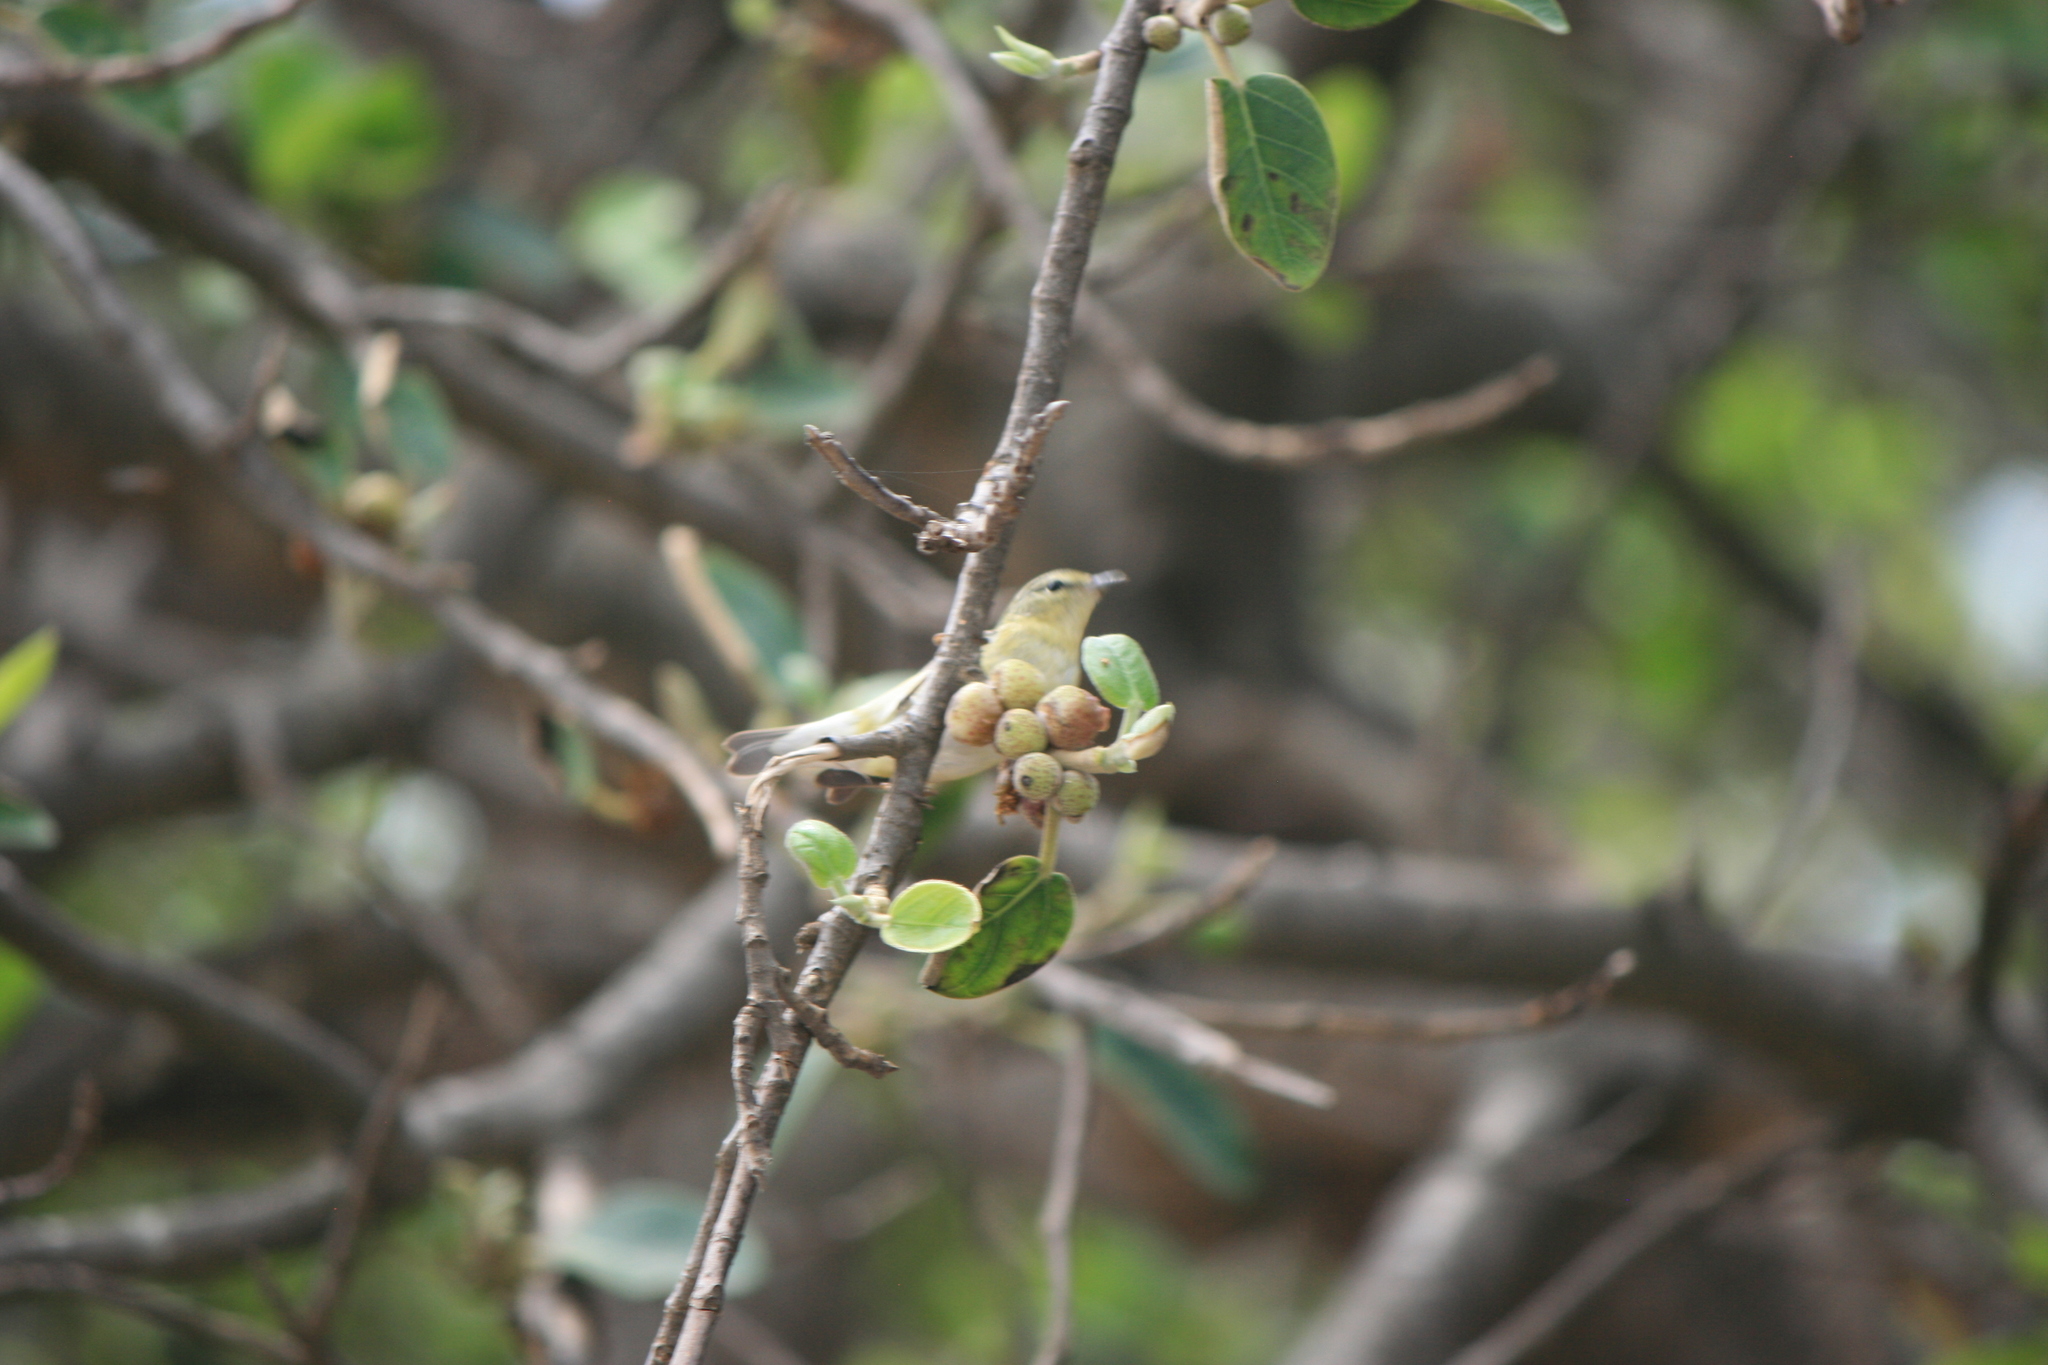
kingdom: Animalia
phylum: Chordata
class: Aves
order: Passeriformes
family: Parulidae
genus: Leiothlypis
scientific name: Leiothlypis peregrina
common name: Tennessee warbler
